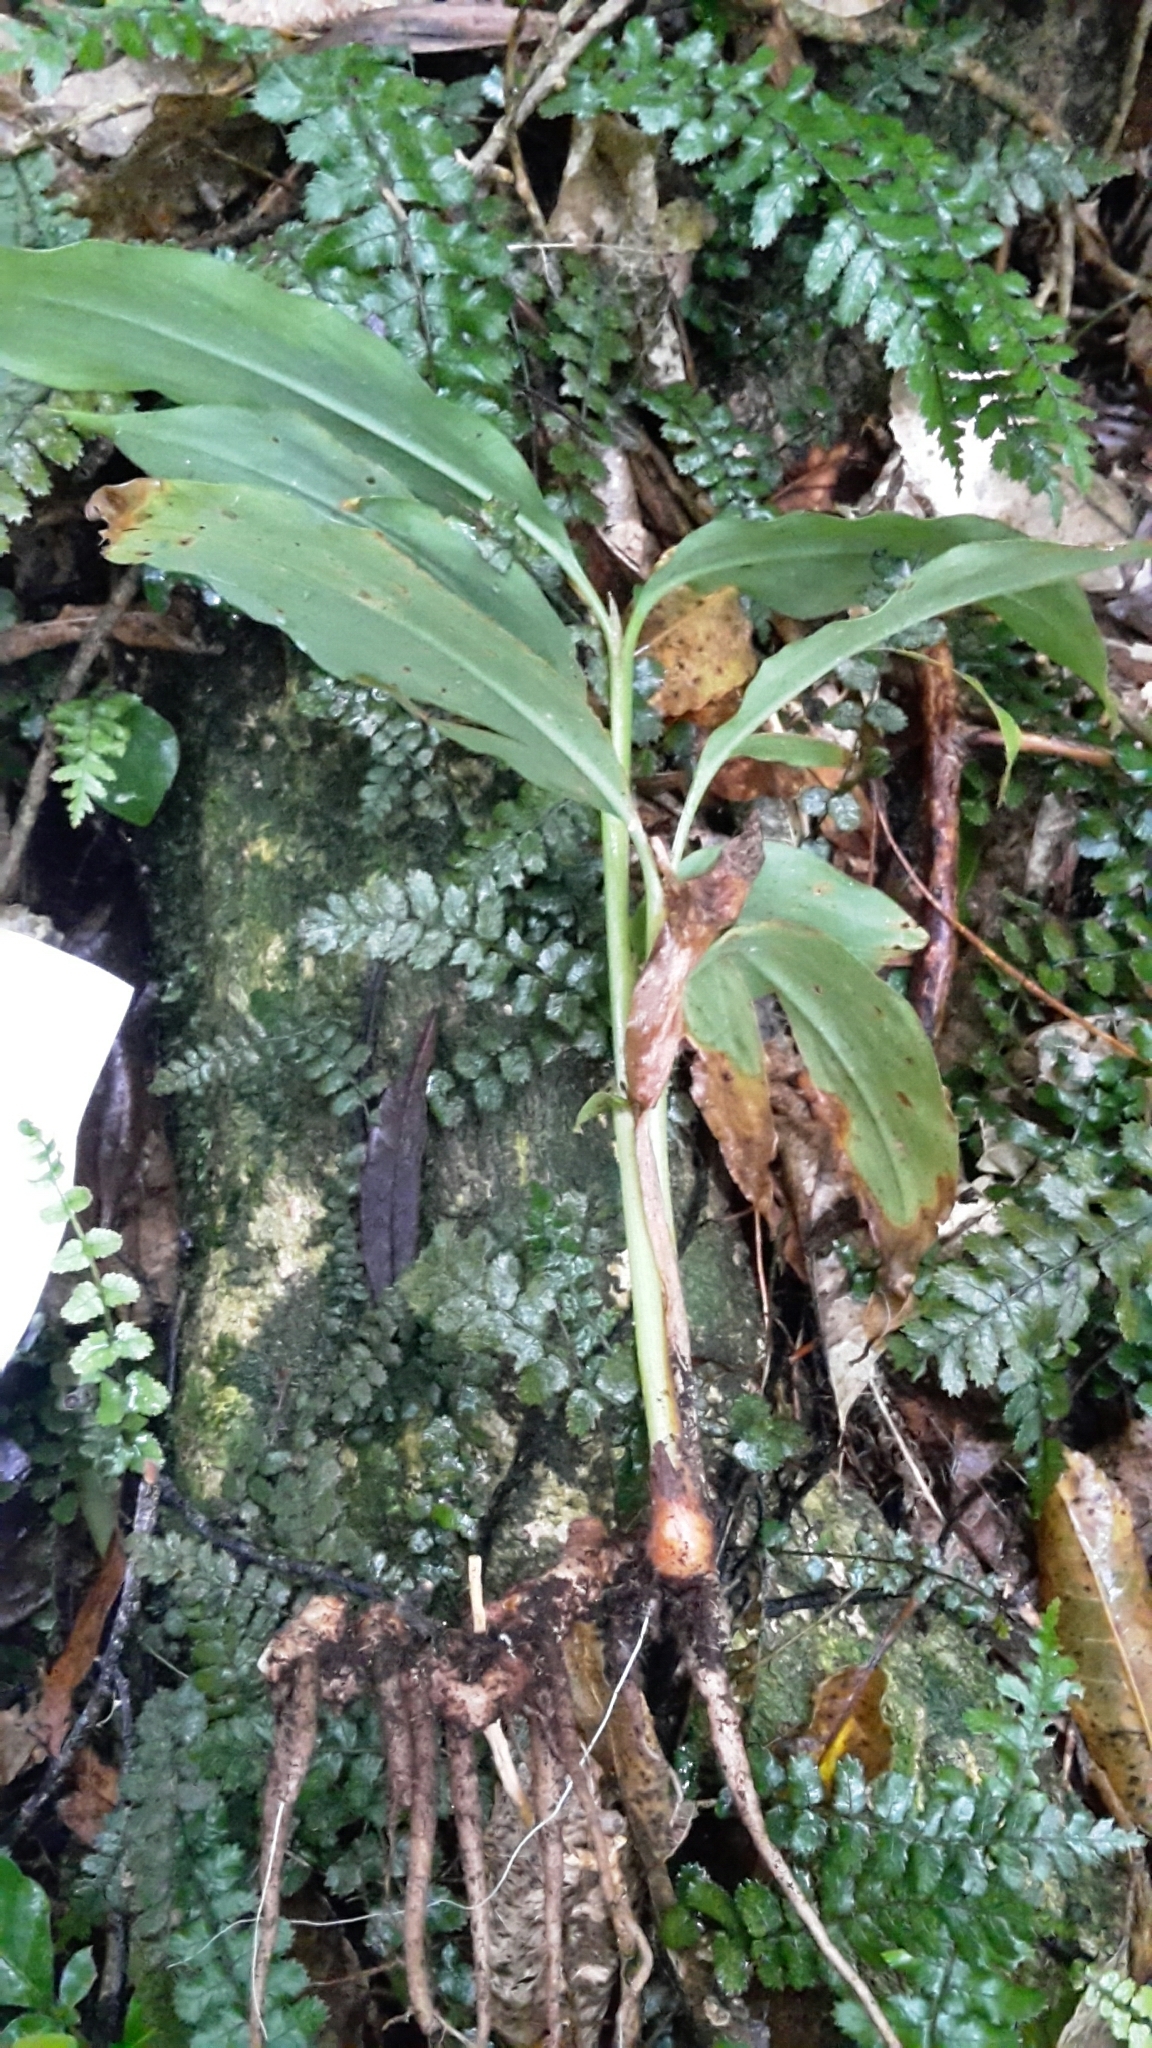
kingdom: Plantae
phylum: Tracheophyta
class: Liliopsida
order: Zingiberales
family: Zingiberaceae
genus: Hedychium
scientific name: Hedychium gardnerianum
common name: Himalayan ginger
